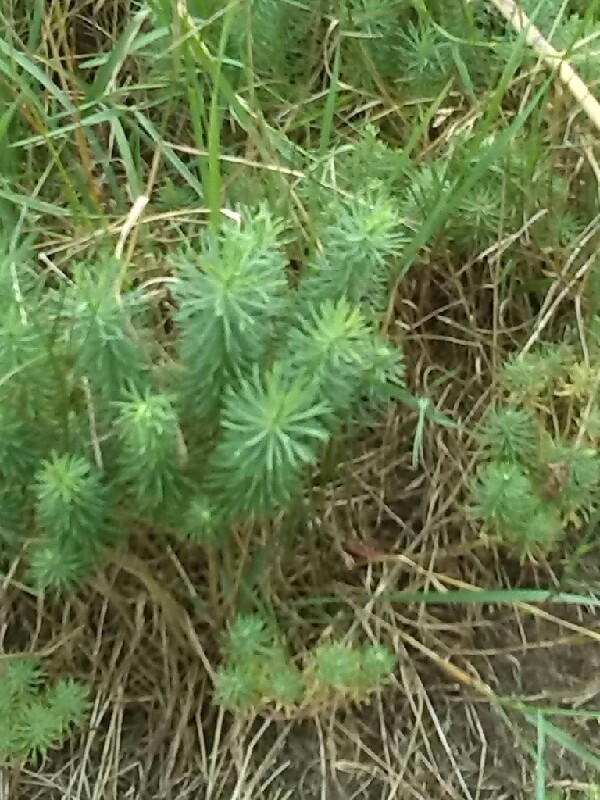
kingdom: Plantae
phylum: Tracheophyta
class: Magnoliopsida
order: Malpighiales
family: Euphorbiaceae
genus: Euphorbia
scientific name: Euphorbia cyparissias
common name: Cypress spurge
